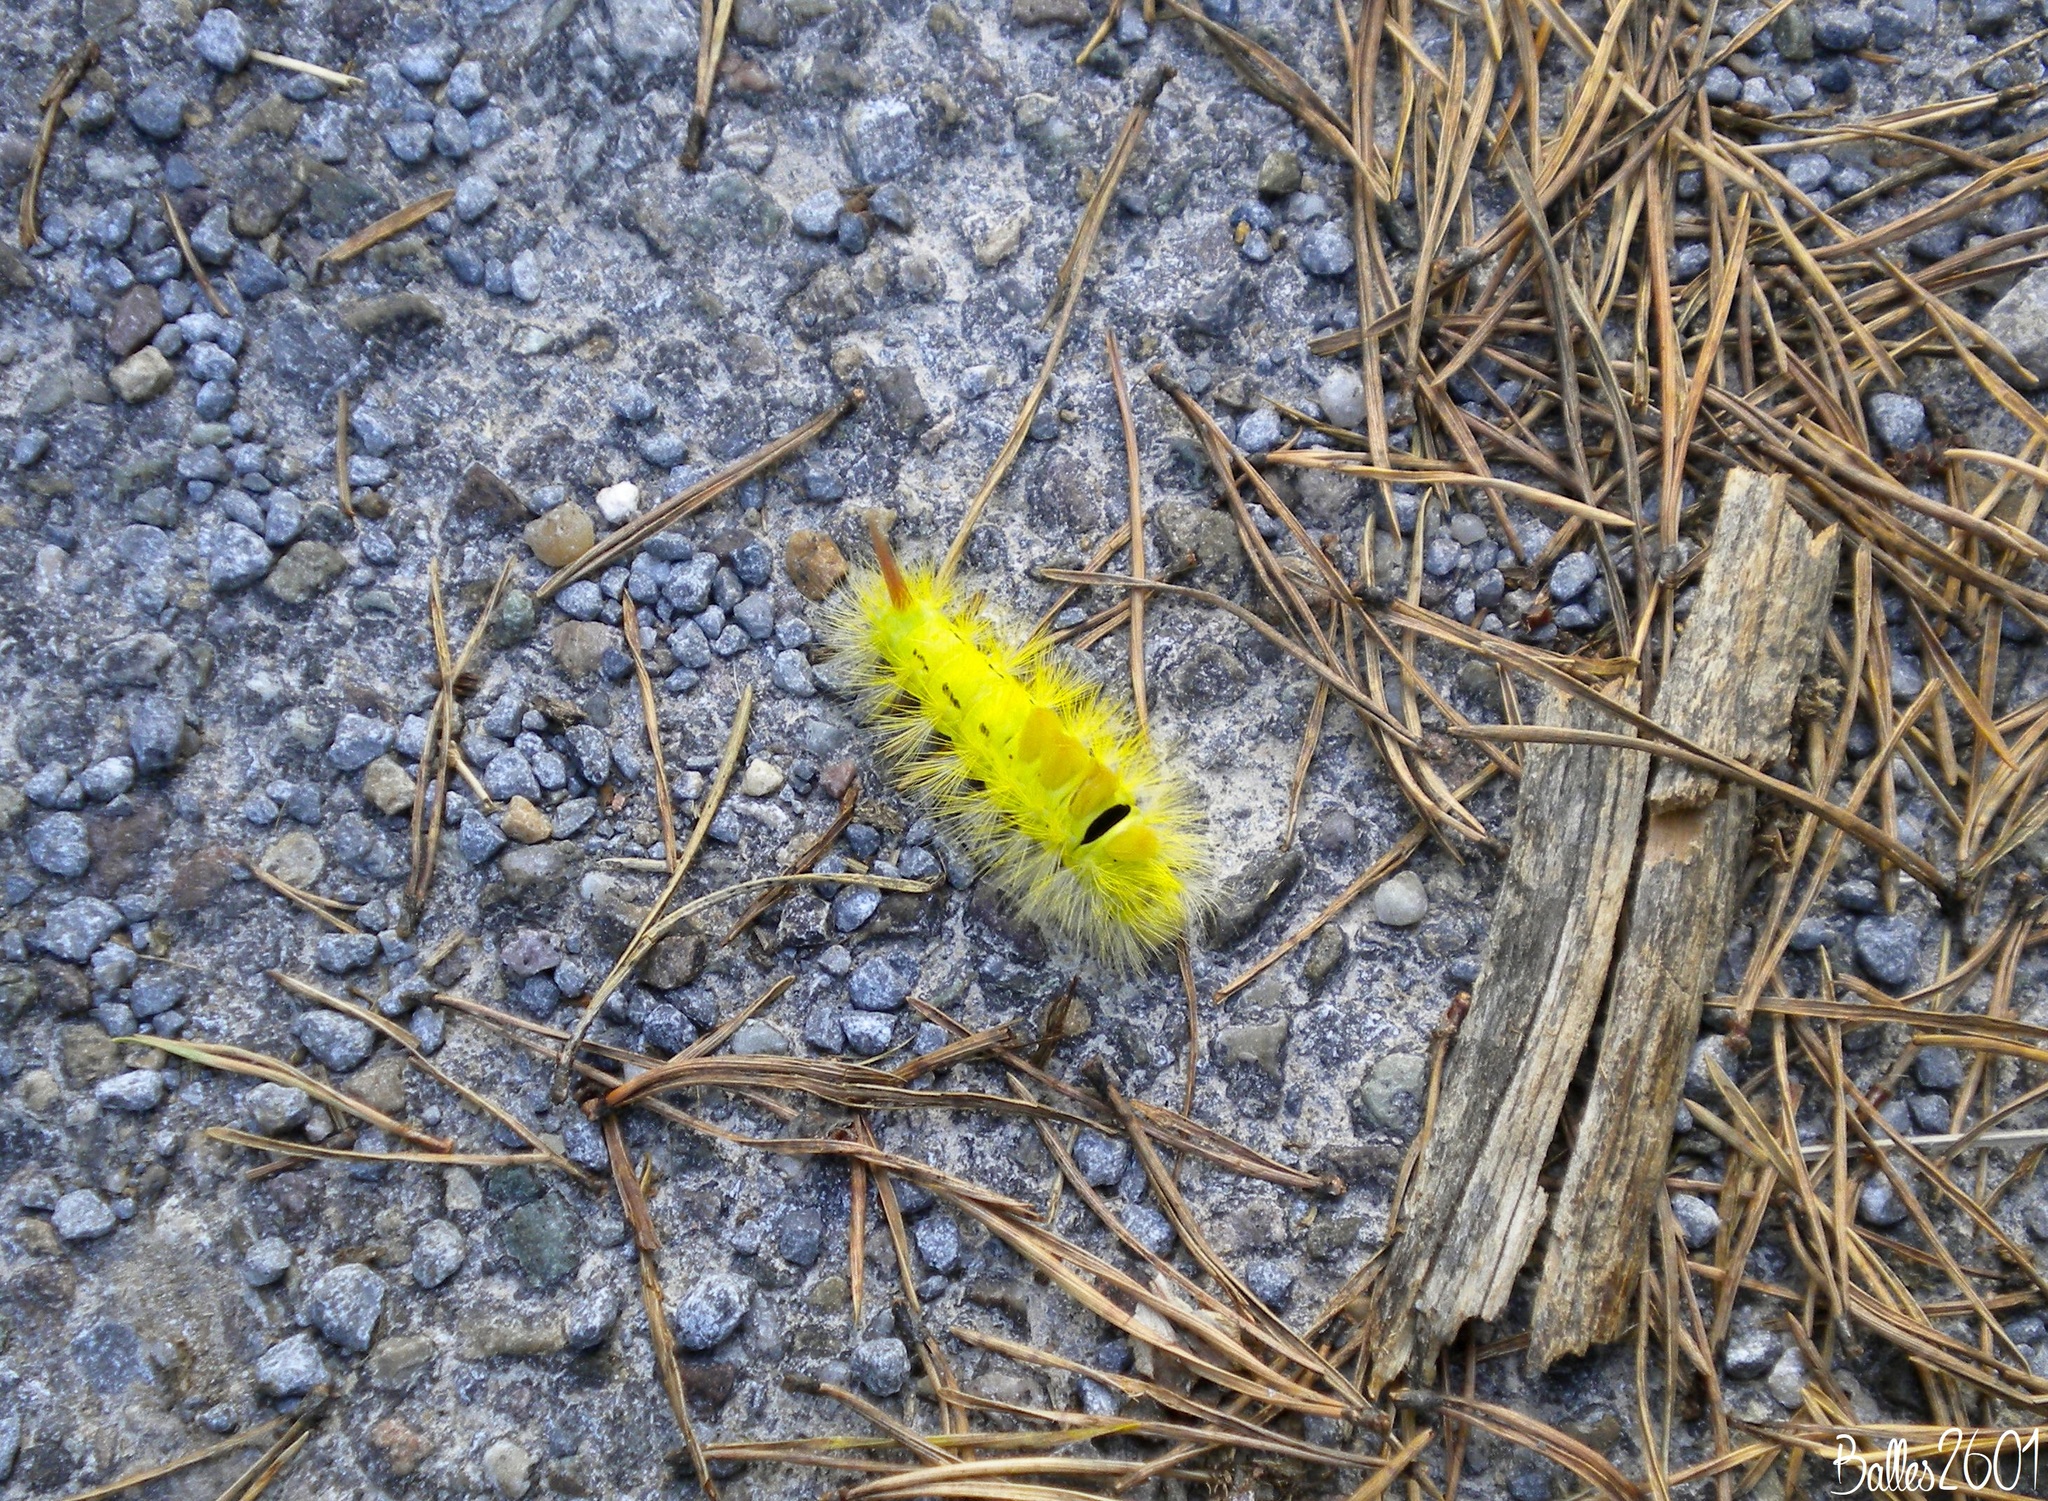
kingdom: Animalia
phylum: Arthropoda
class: Insecta
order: Lepidoptera
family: Erebidae
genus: Calliteara
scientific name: Calliteara pudibunda
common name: Pale tussock
